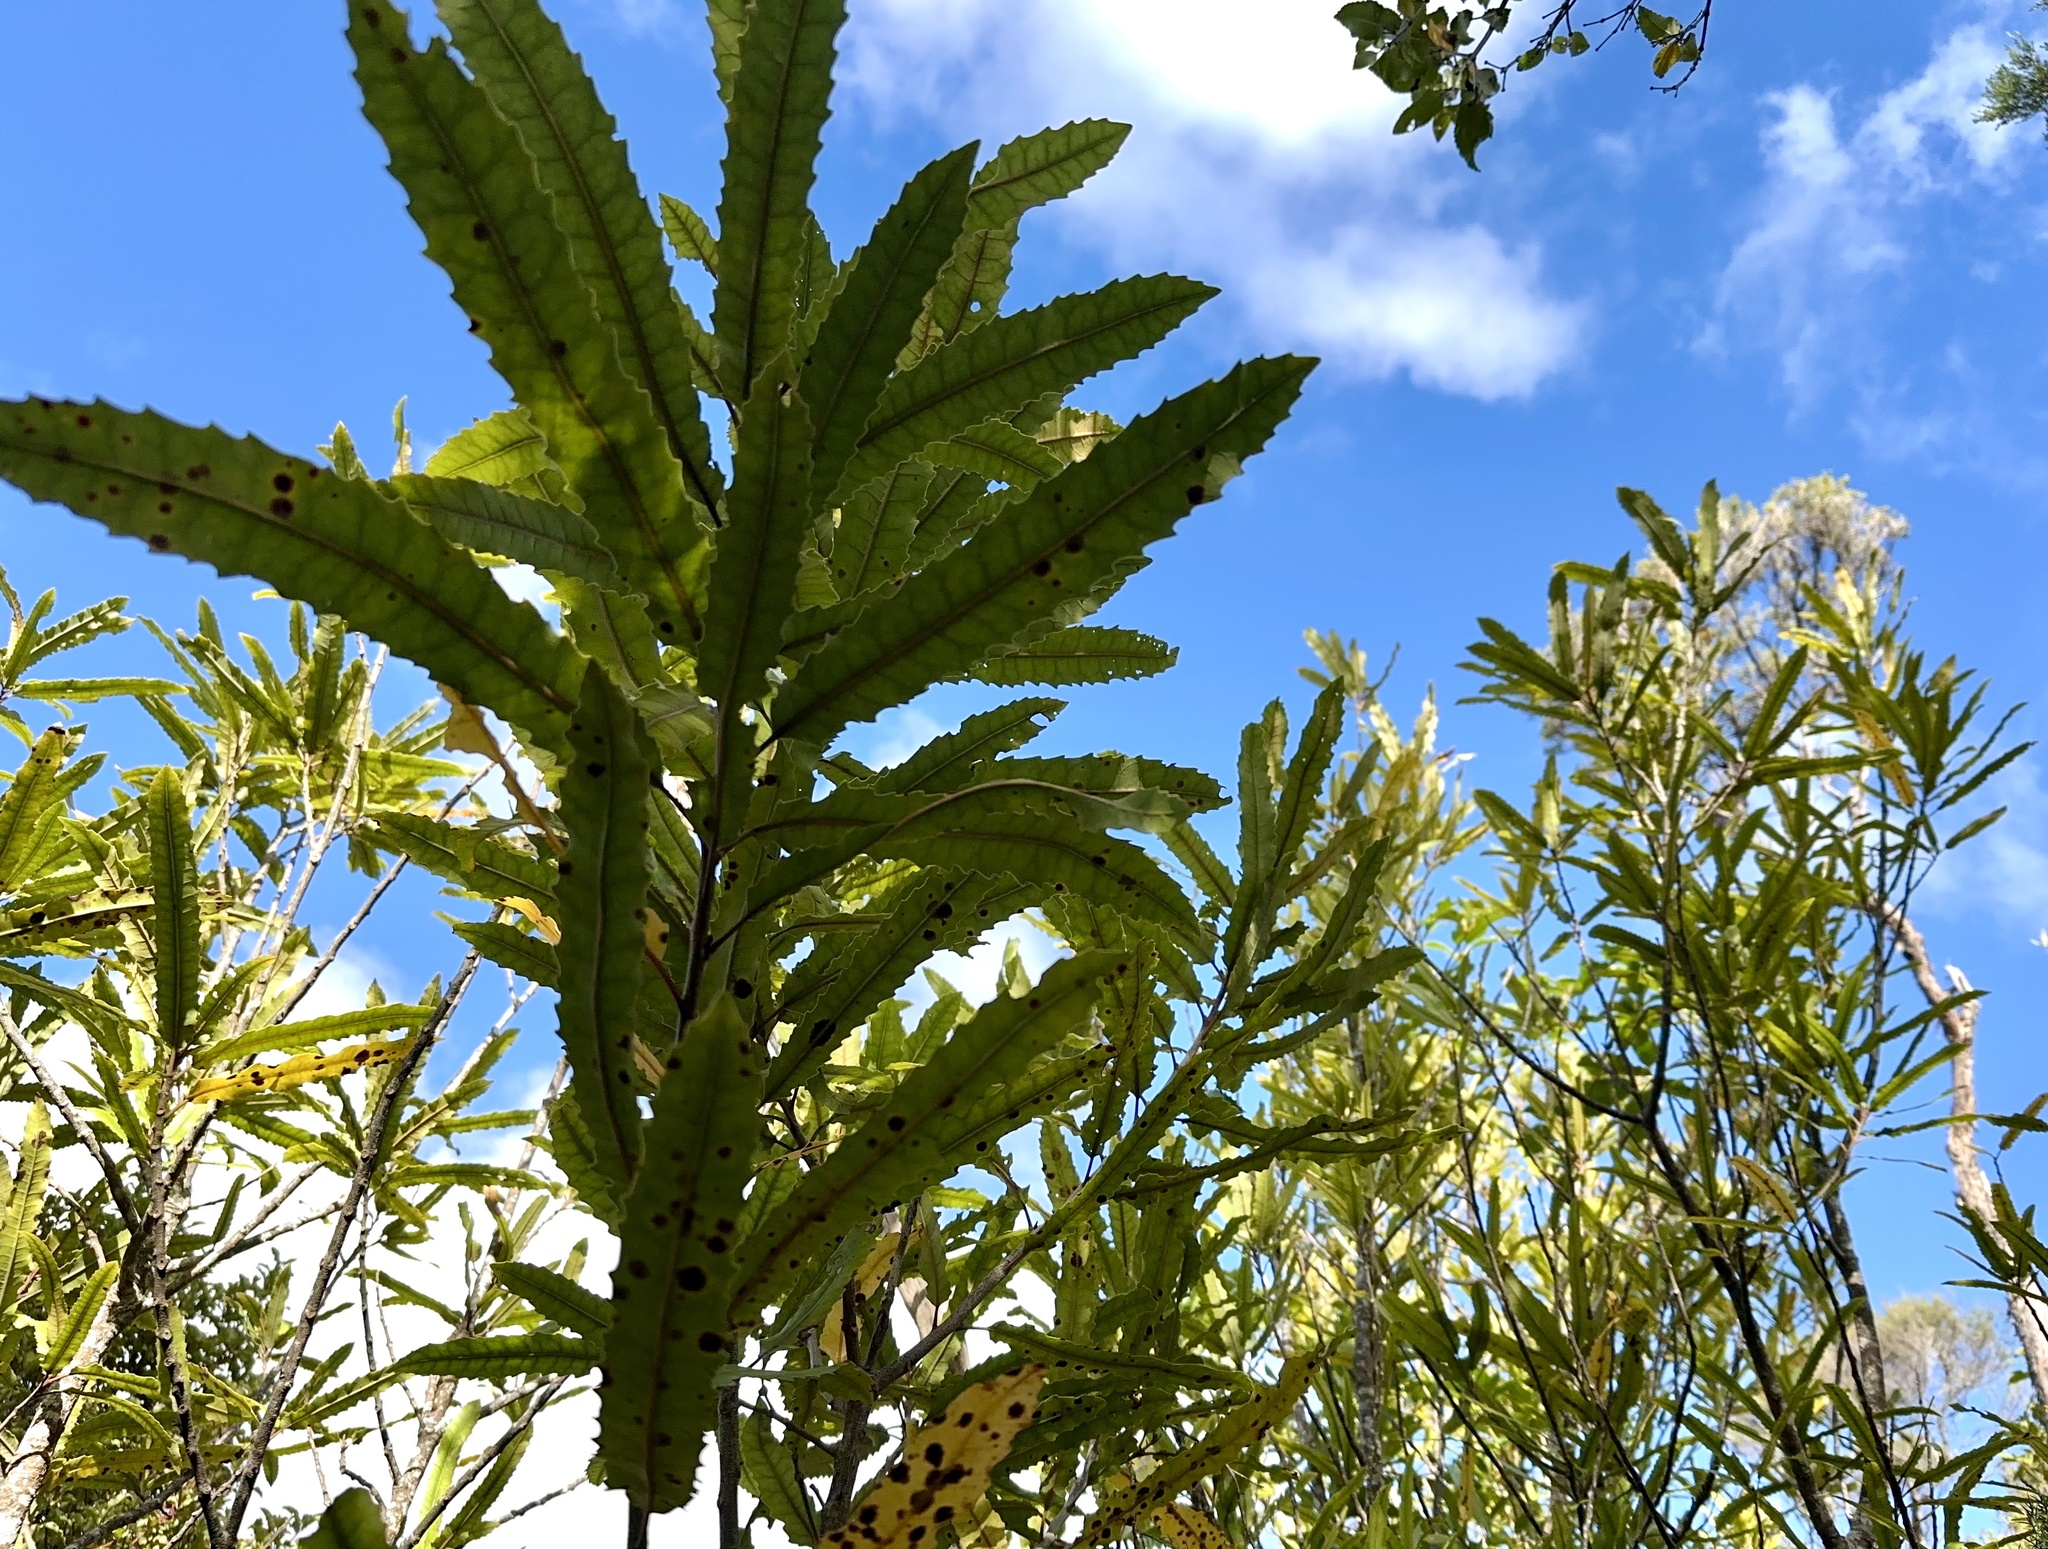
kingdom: Plantae
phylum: Tracheophyta
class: Magnoliopsida
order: Proteales
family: Proteaceae
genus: Knightia
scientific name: Knightia excelsa
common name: New zealand-honeysuckle
